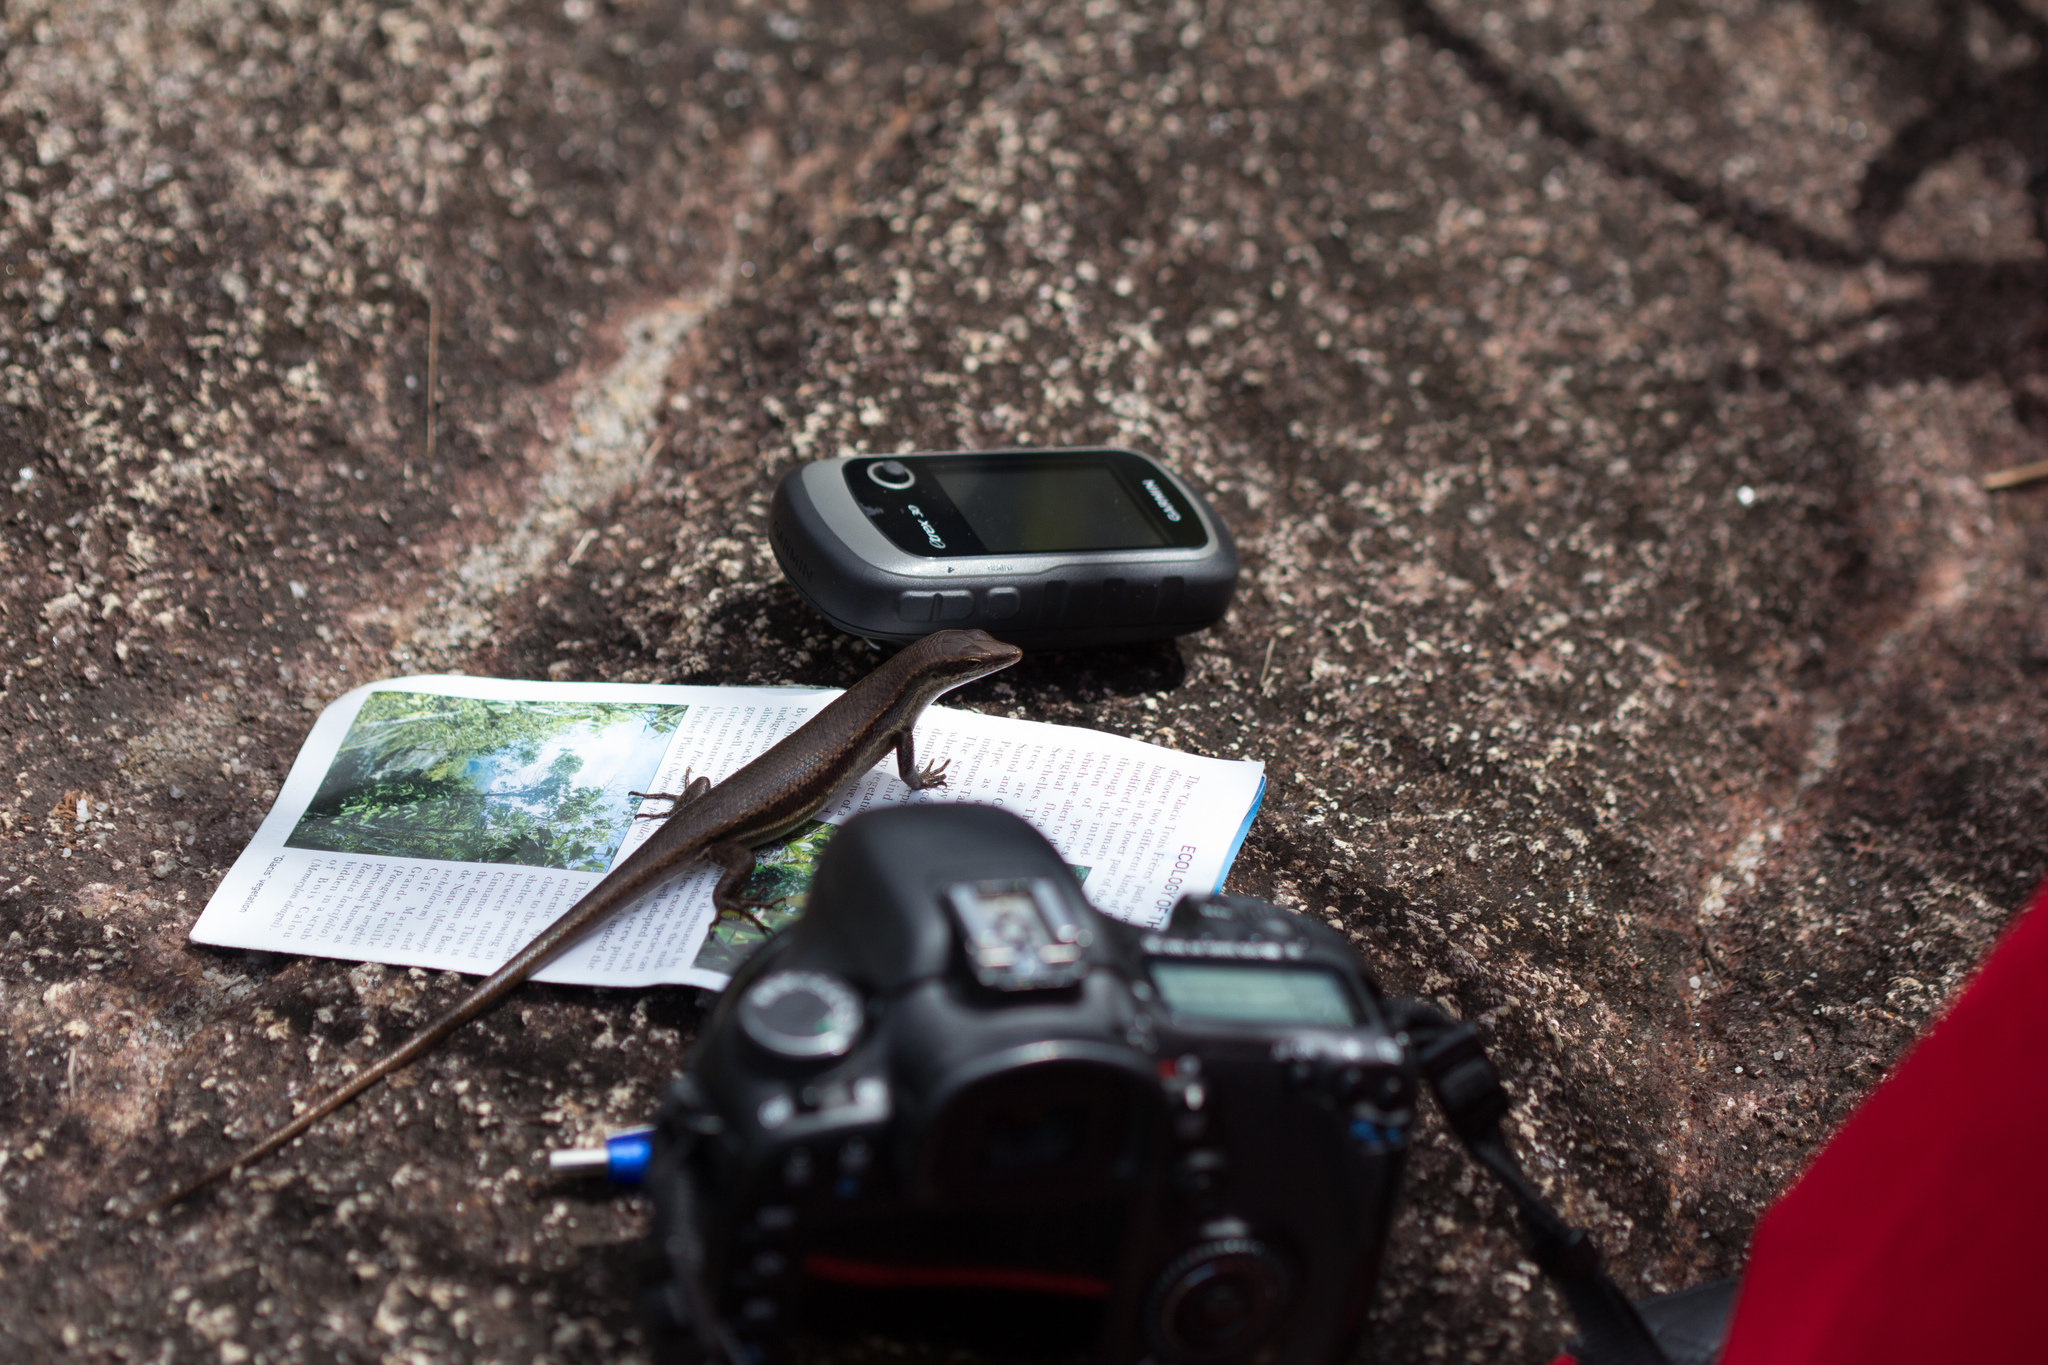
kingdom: Animalia
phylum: Chordata
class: Squamata
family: Scincidae
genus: Trachylepis
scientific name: Trachylepis sechellensis
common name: Seychelles skink
